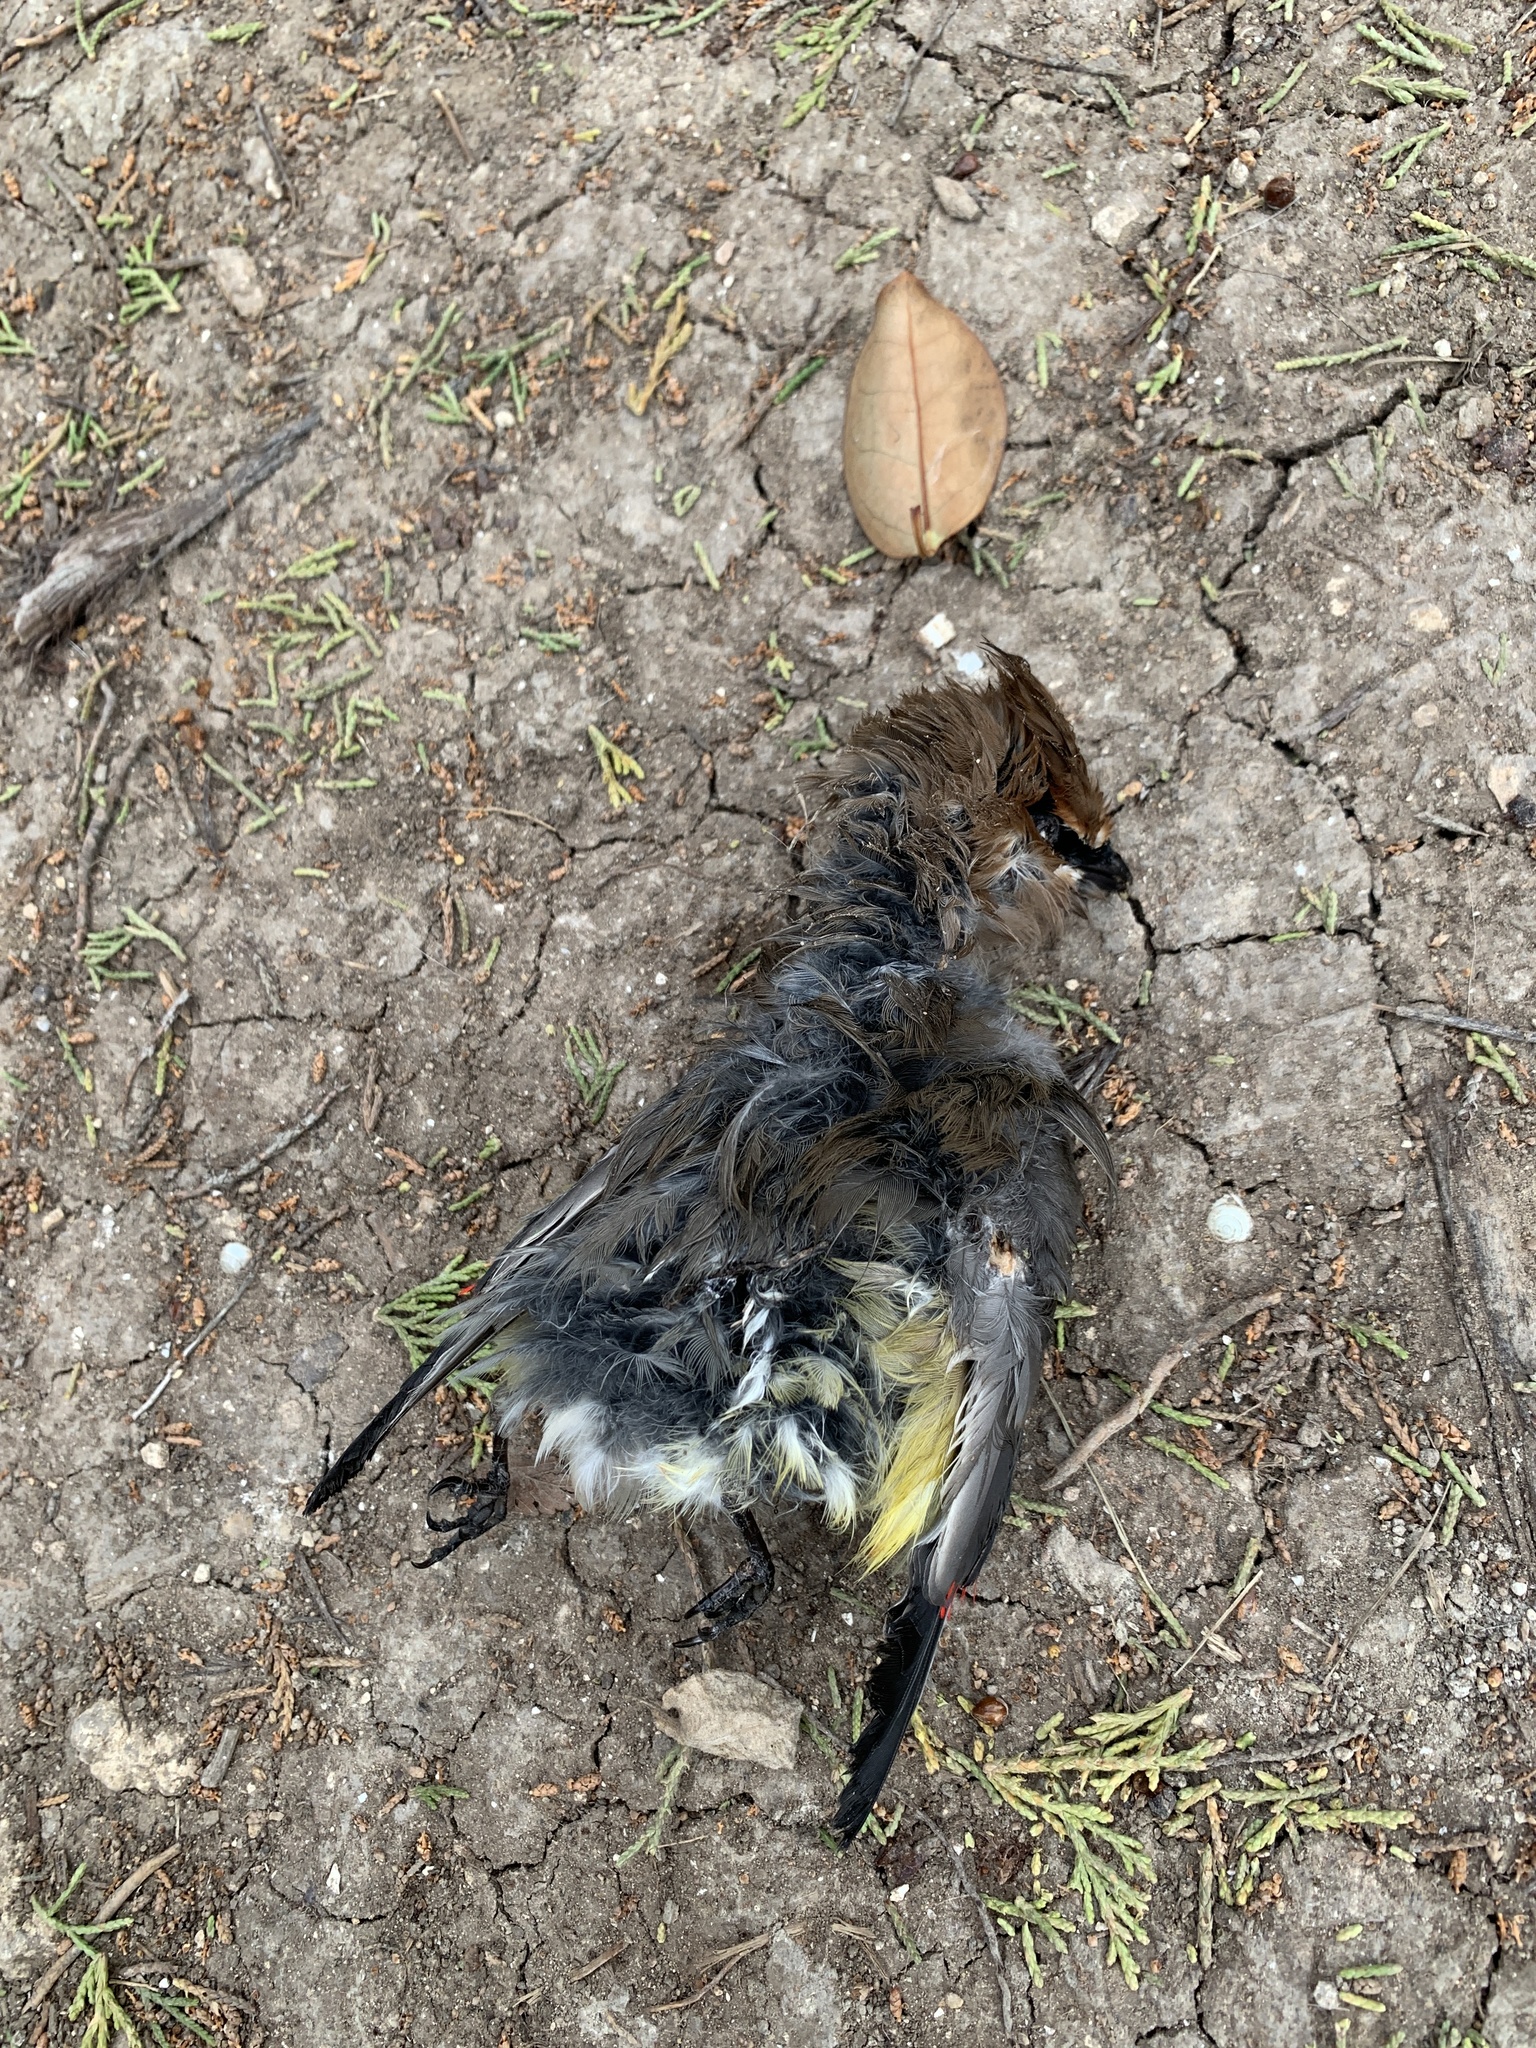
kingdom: Animalia
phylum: Chordata
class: Aves
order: Passeriformes
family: Bombycillidae
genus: Bombycilla
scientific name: Bombycilla cedrorum
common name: Cedar waxwing
